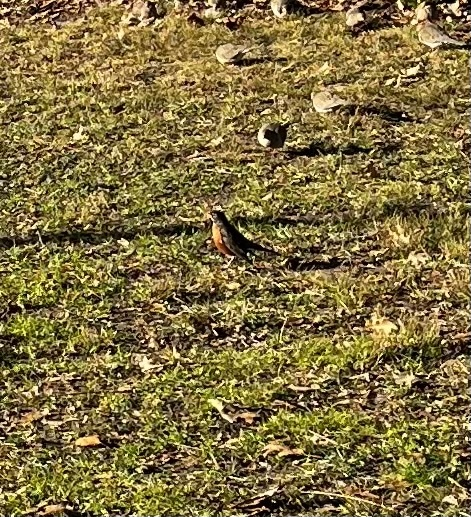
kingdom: Animalia
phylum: Chordata
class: Aves
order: Passeriformes
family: Turdidae
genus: Turdus
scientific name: Turdus migratorius
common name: American robin
